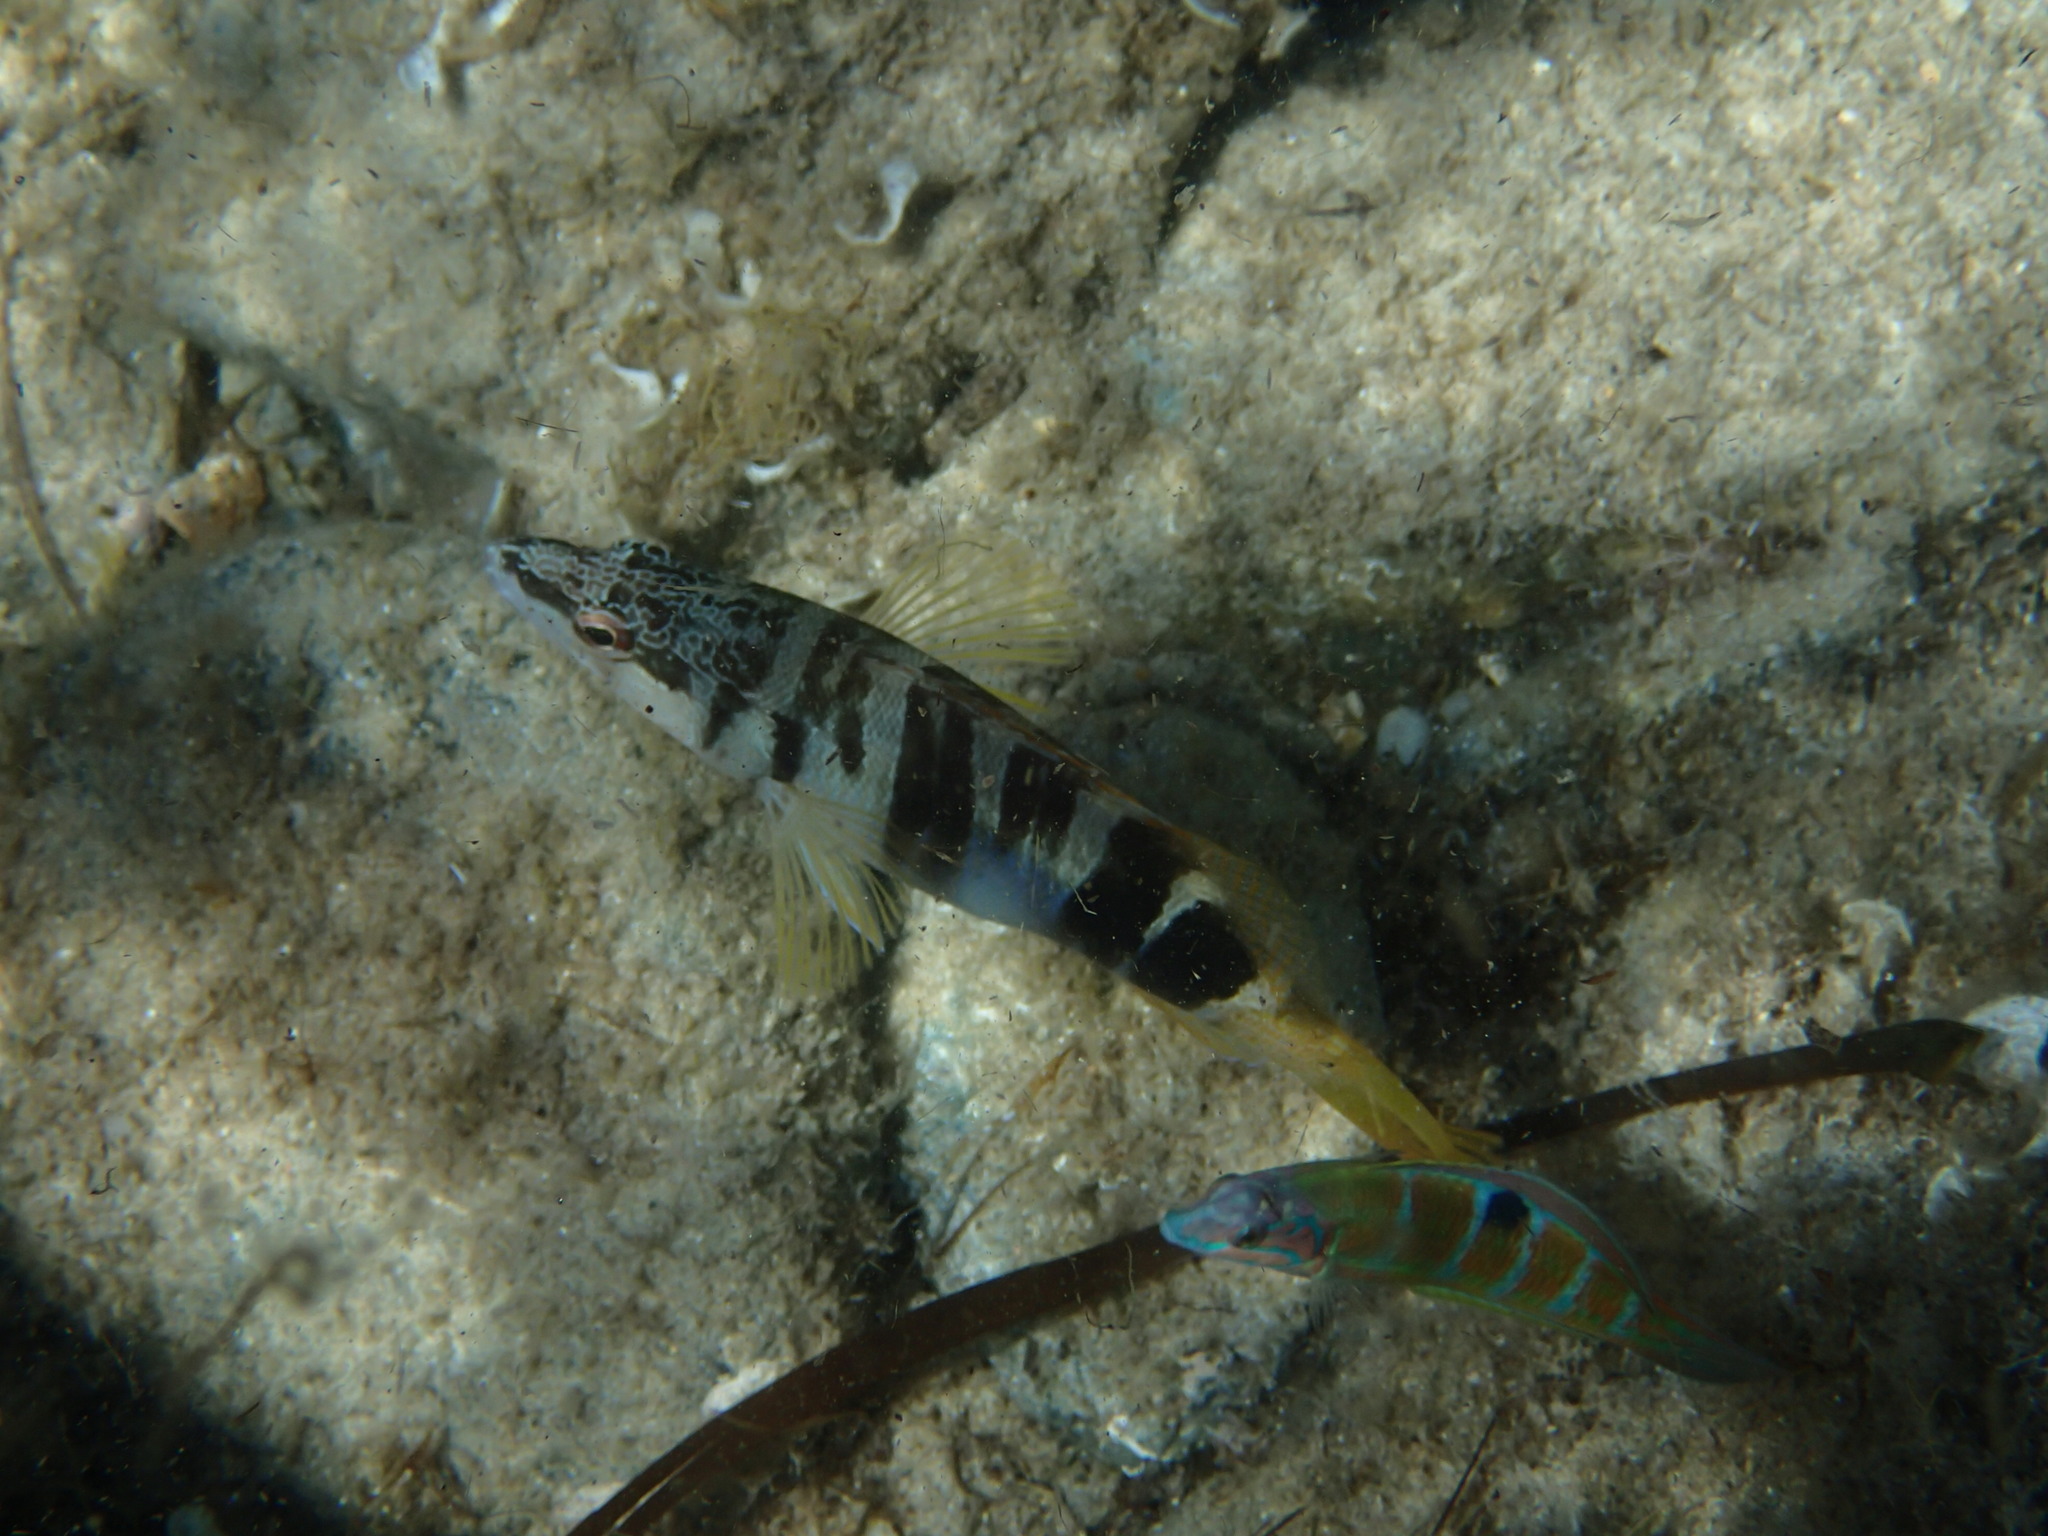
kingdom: Animalia
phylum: Chordata
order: Perciformes
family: Serranidae
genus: Serranus
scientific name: Serranus scriba
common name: Painted comber
